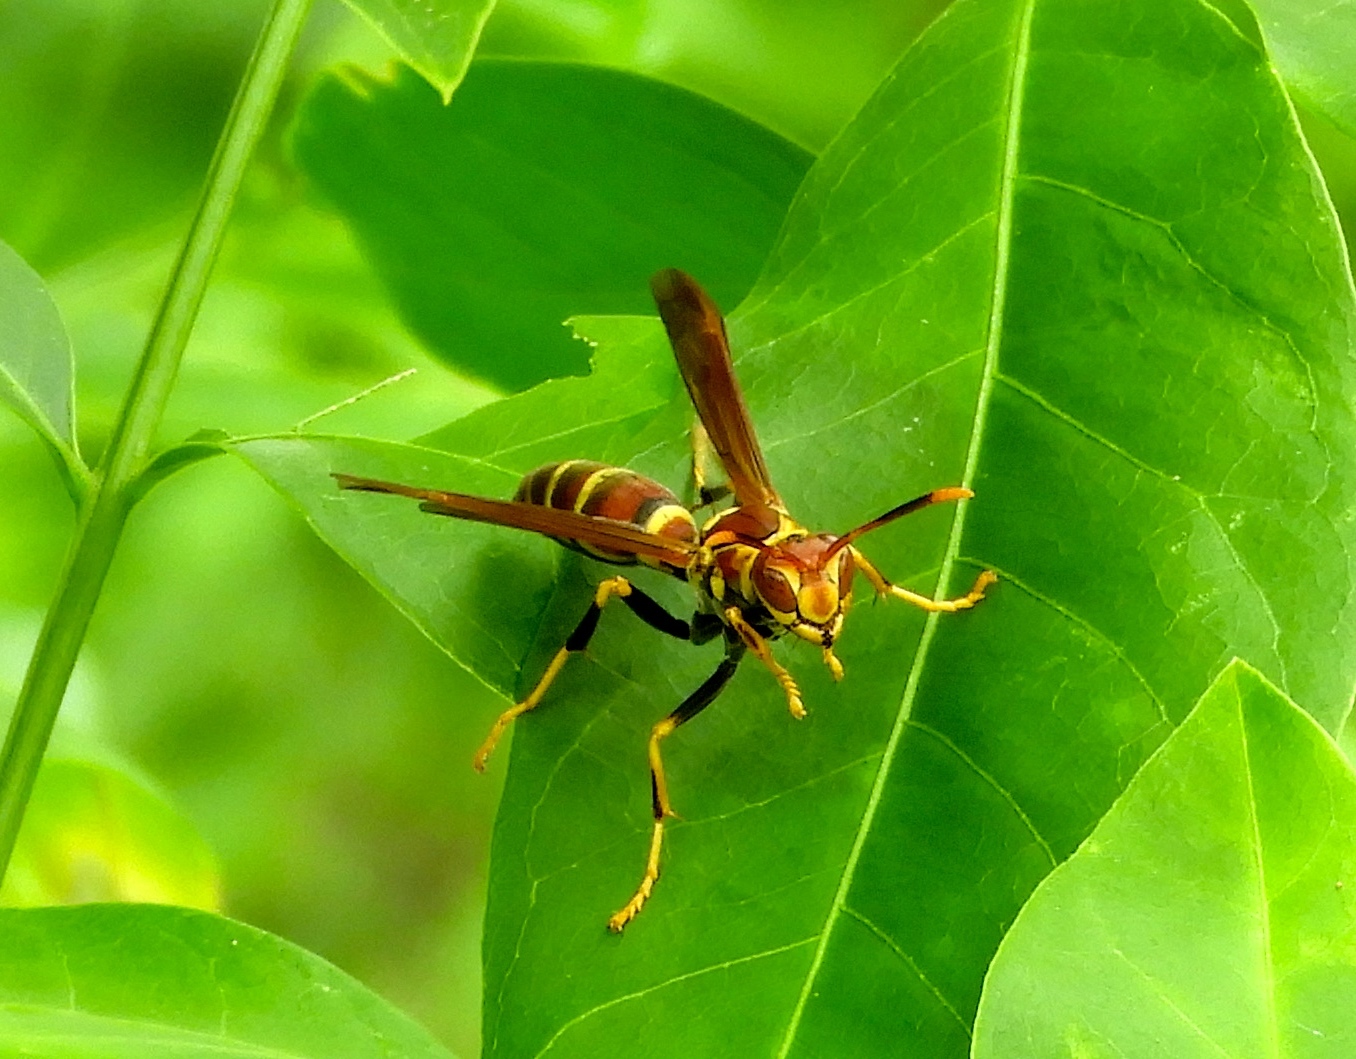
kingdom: Animalia
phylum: Arthropoda
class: Insecta
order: Hymenoptera
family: Eumenidae
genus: Polistes
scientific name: Polistes instabilis
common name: Unstable paper wasp
